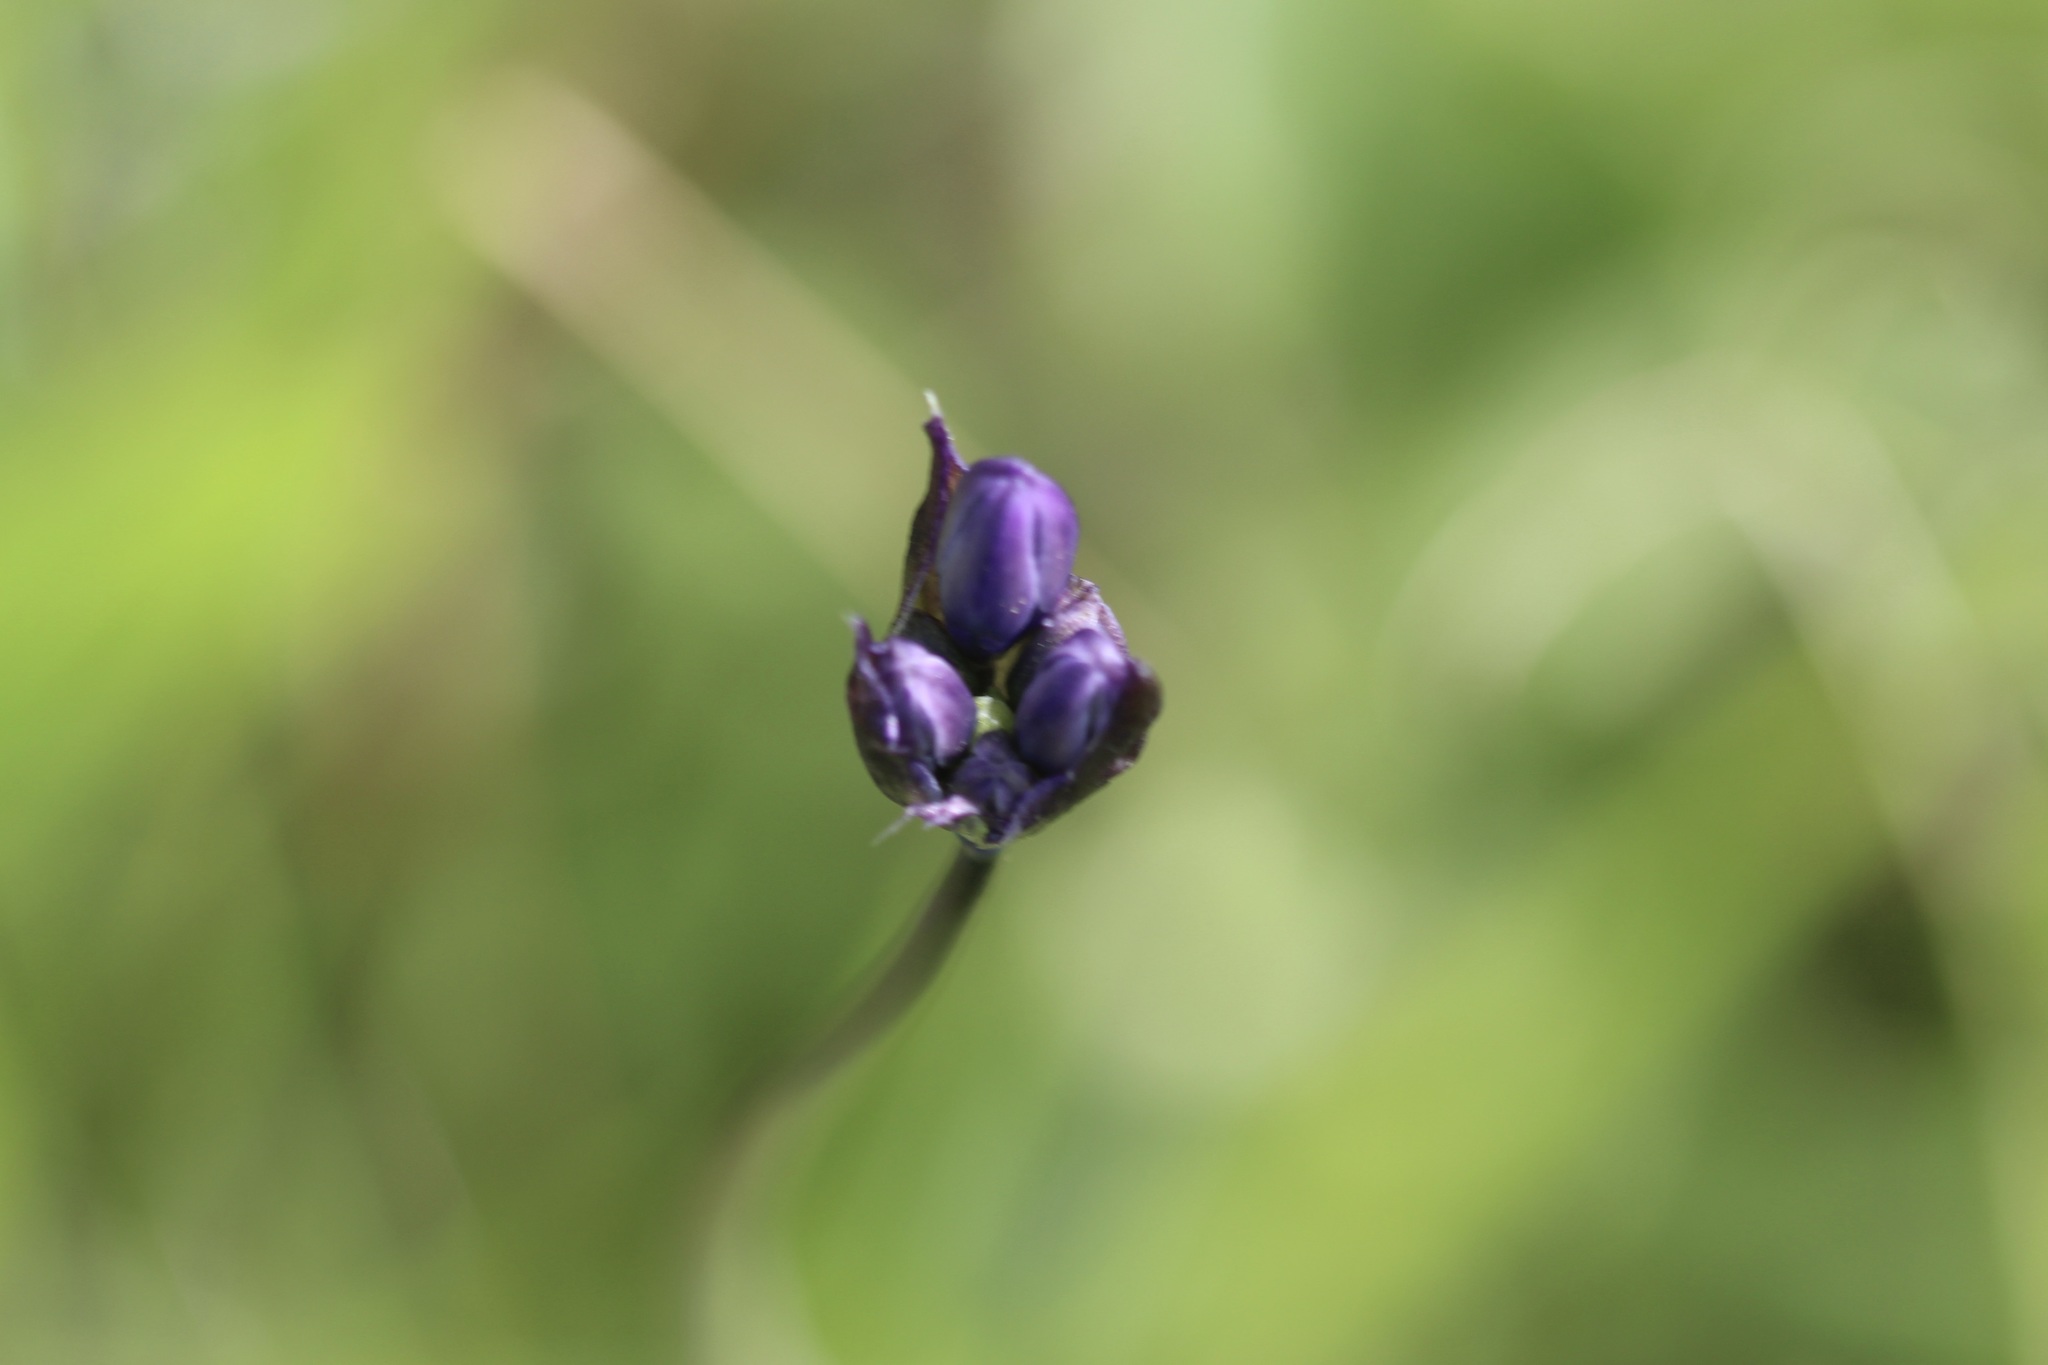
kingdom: Plantae
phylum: Tracheophyta
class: Liliopsida
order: Asparagales
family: Asparagaceae
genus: Dipterostemon
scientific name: Dipterostemon capitatus
